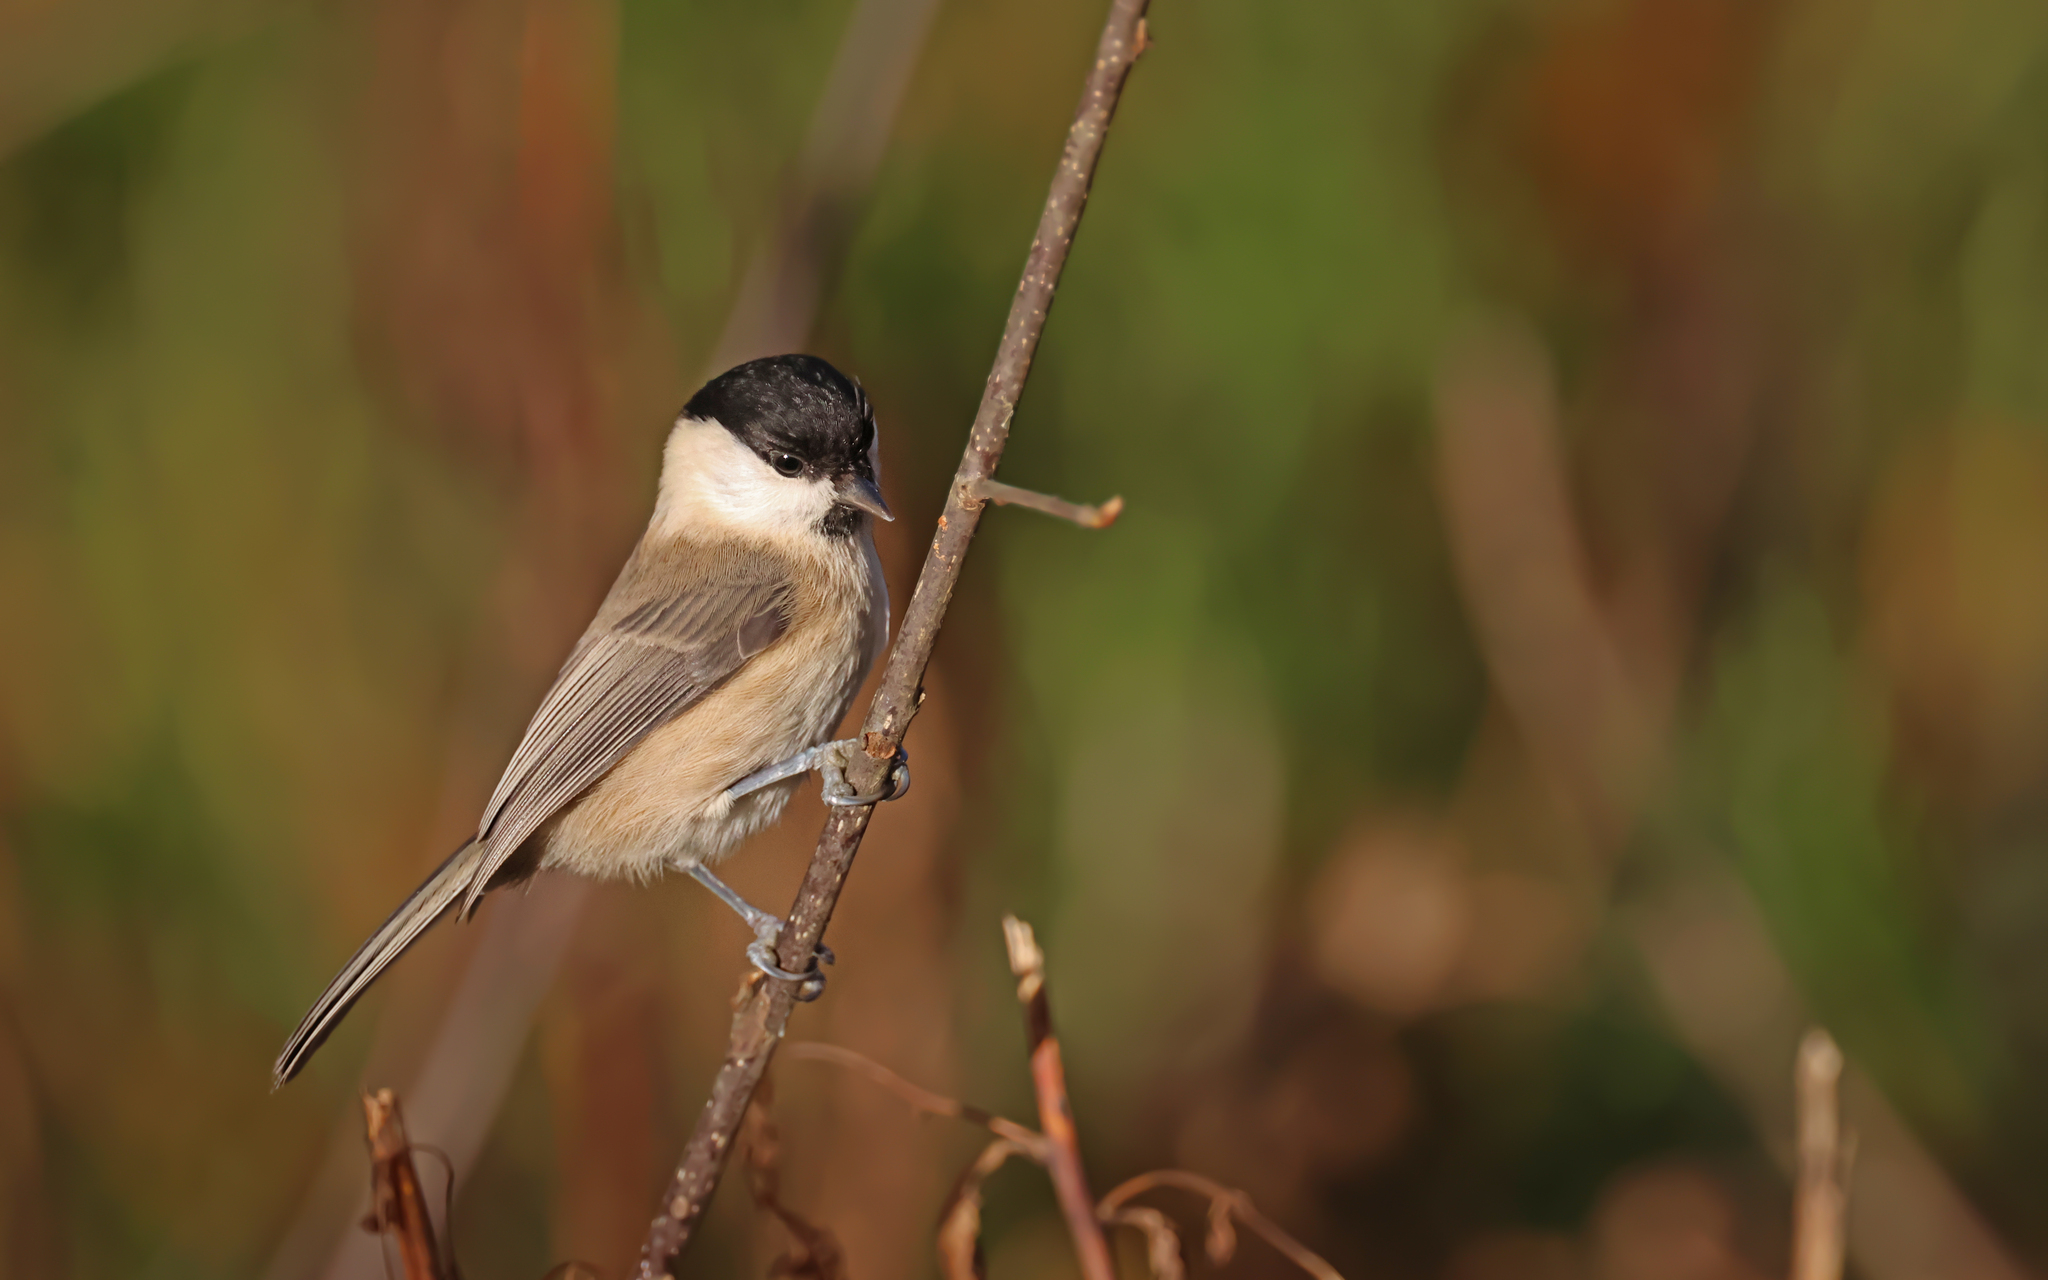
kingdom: Animalia
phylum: Chordata
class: Aves
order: Passeriformes
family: Paridae
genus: Poecile
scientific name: Poecile palustris
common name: Marsh tit
